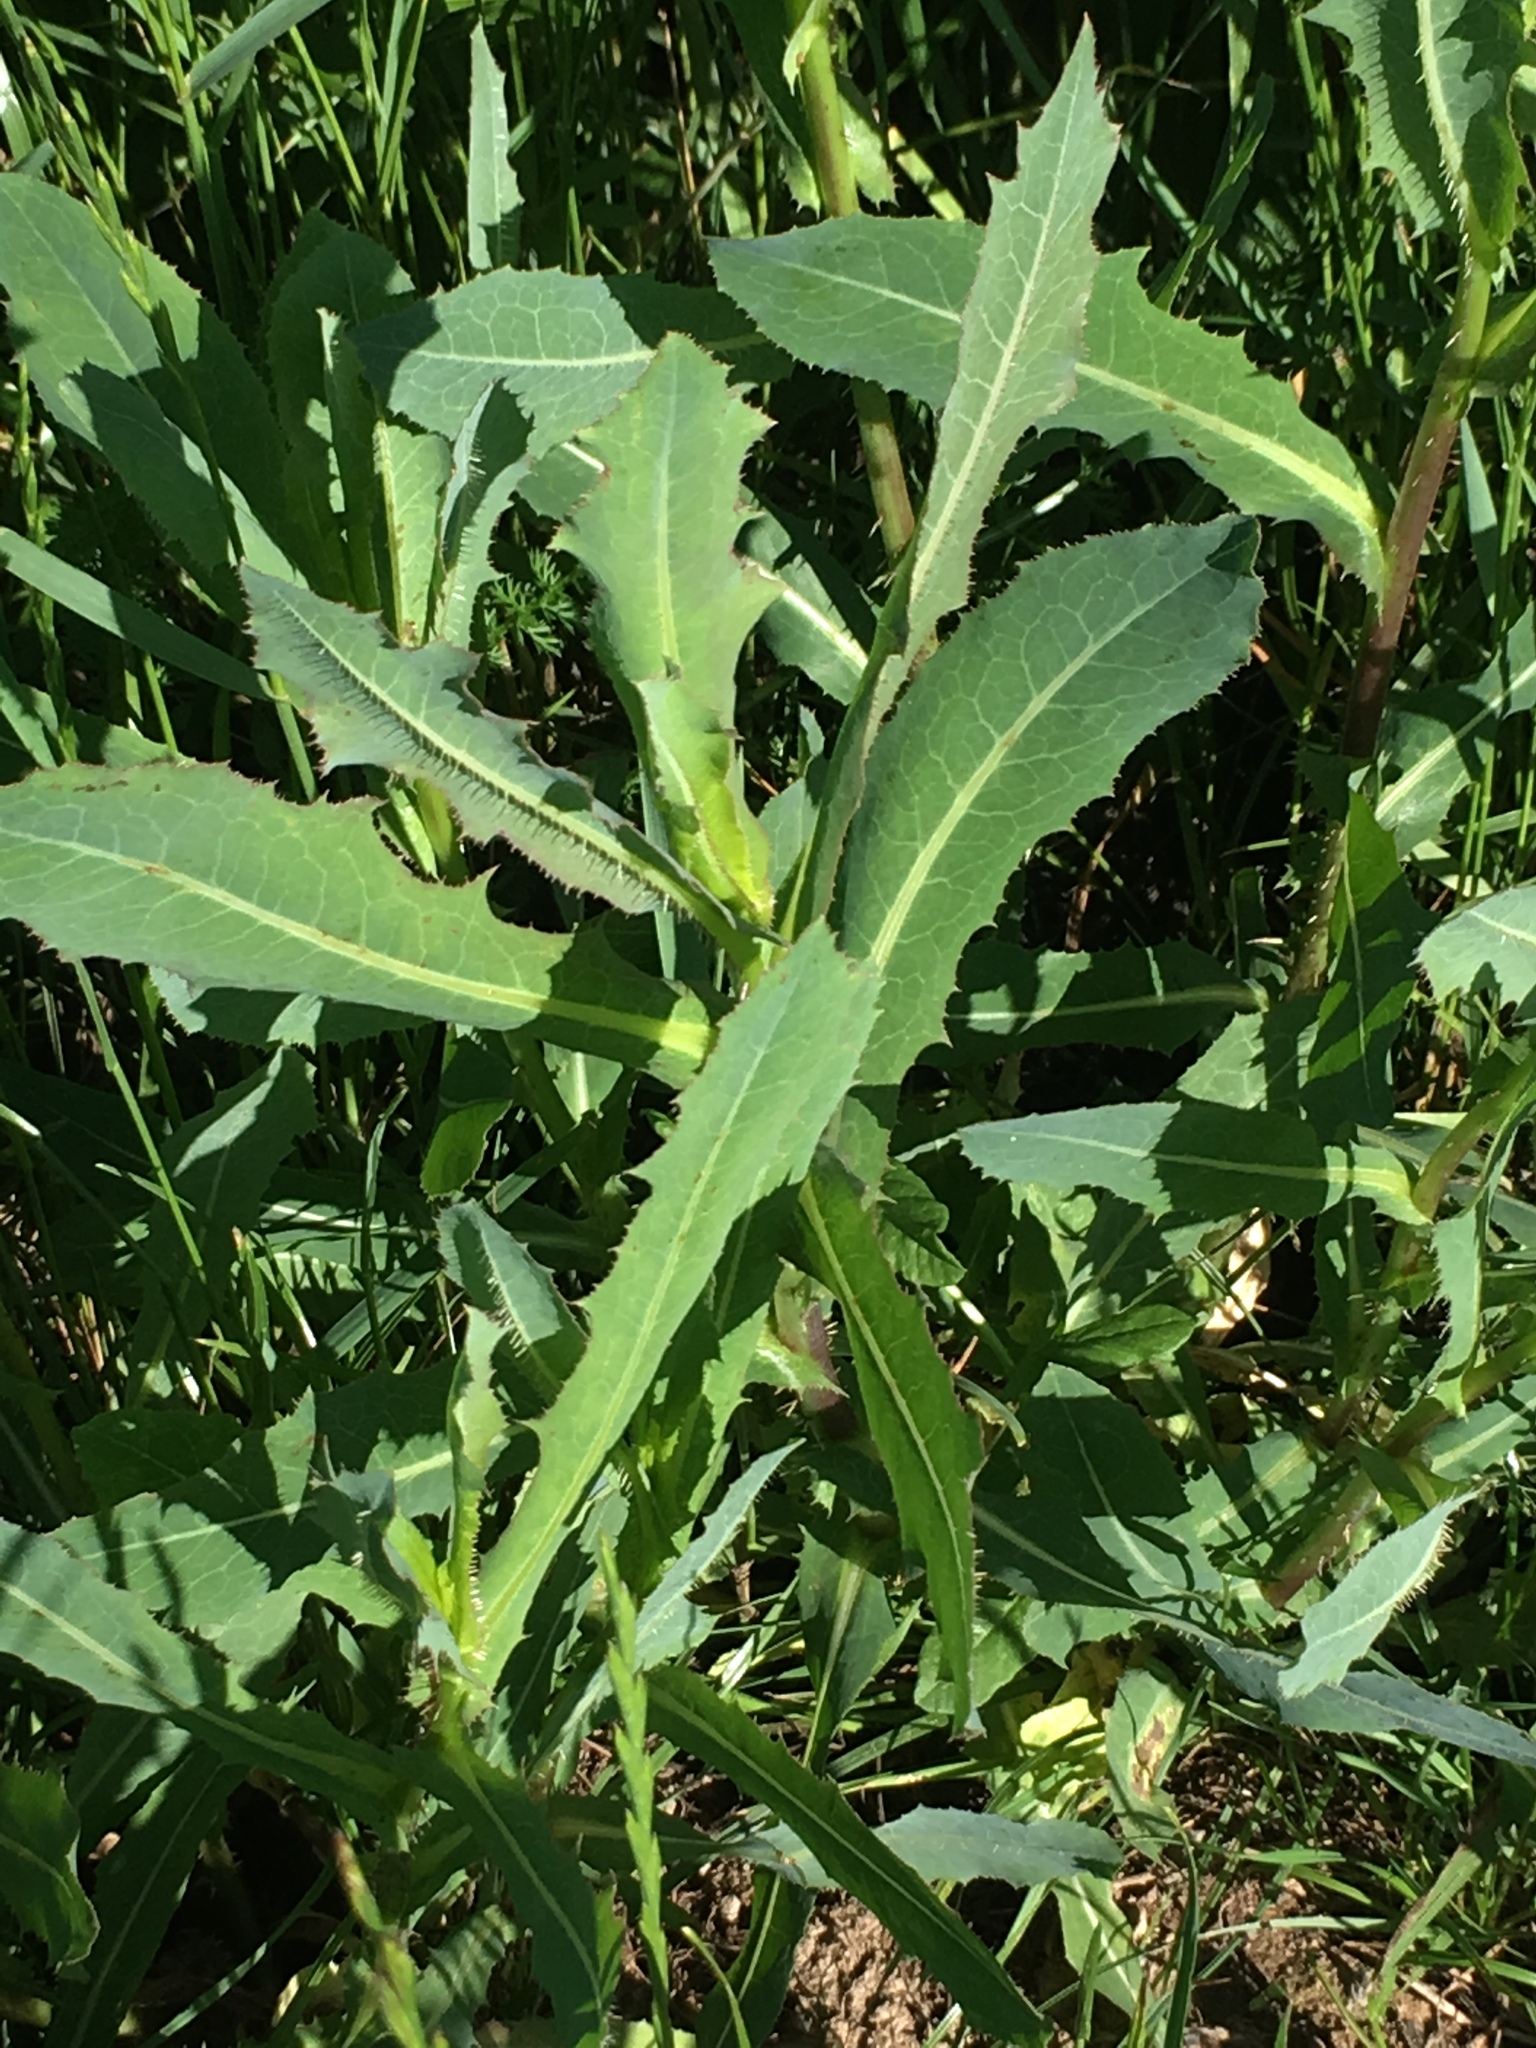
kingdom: Plantae
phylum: Tracheophyta
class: Magnoliopsida
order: Asterales
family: Asteraceae
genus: Lactuca
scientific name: Lactuca serriola
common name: Prickly lettuce
